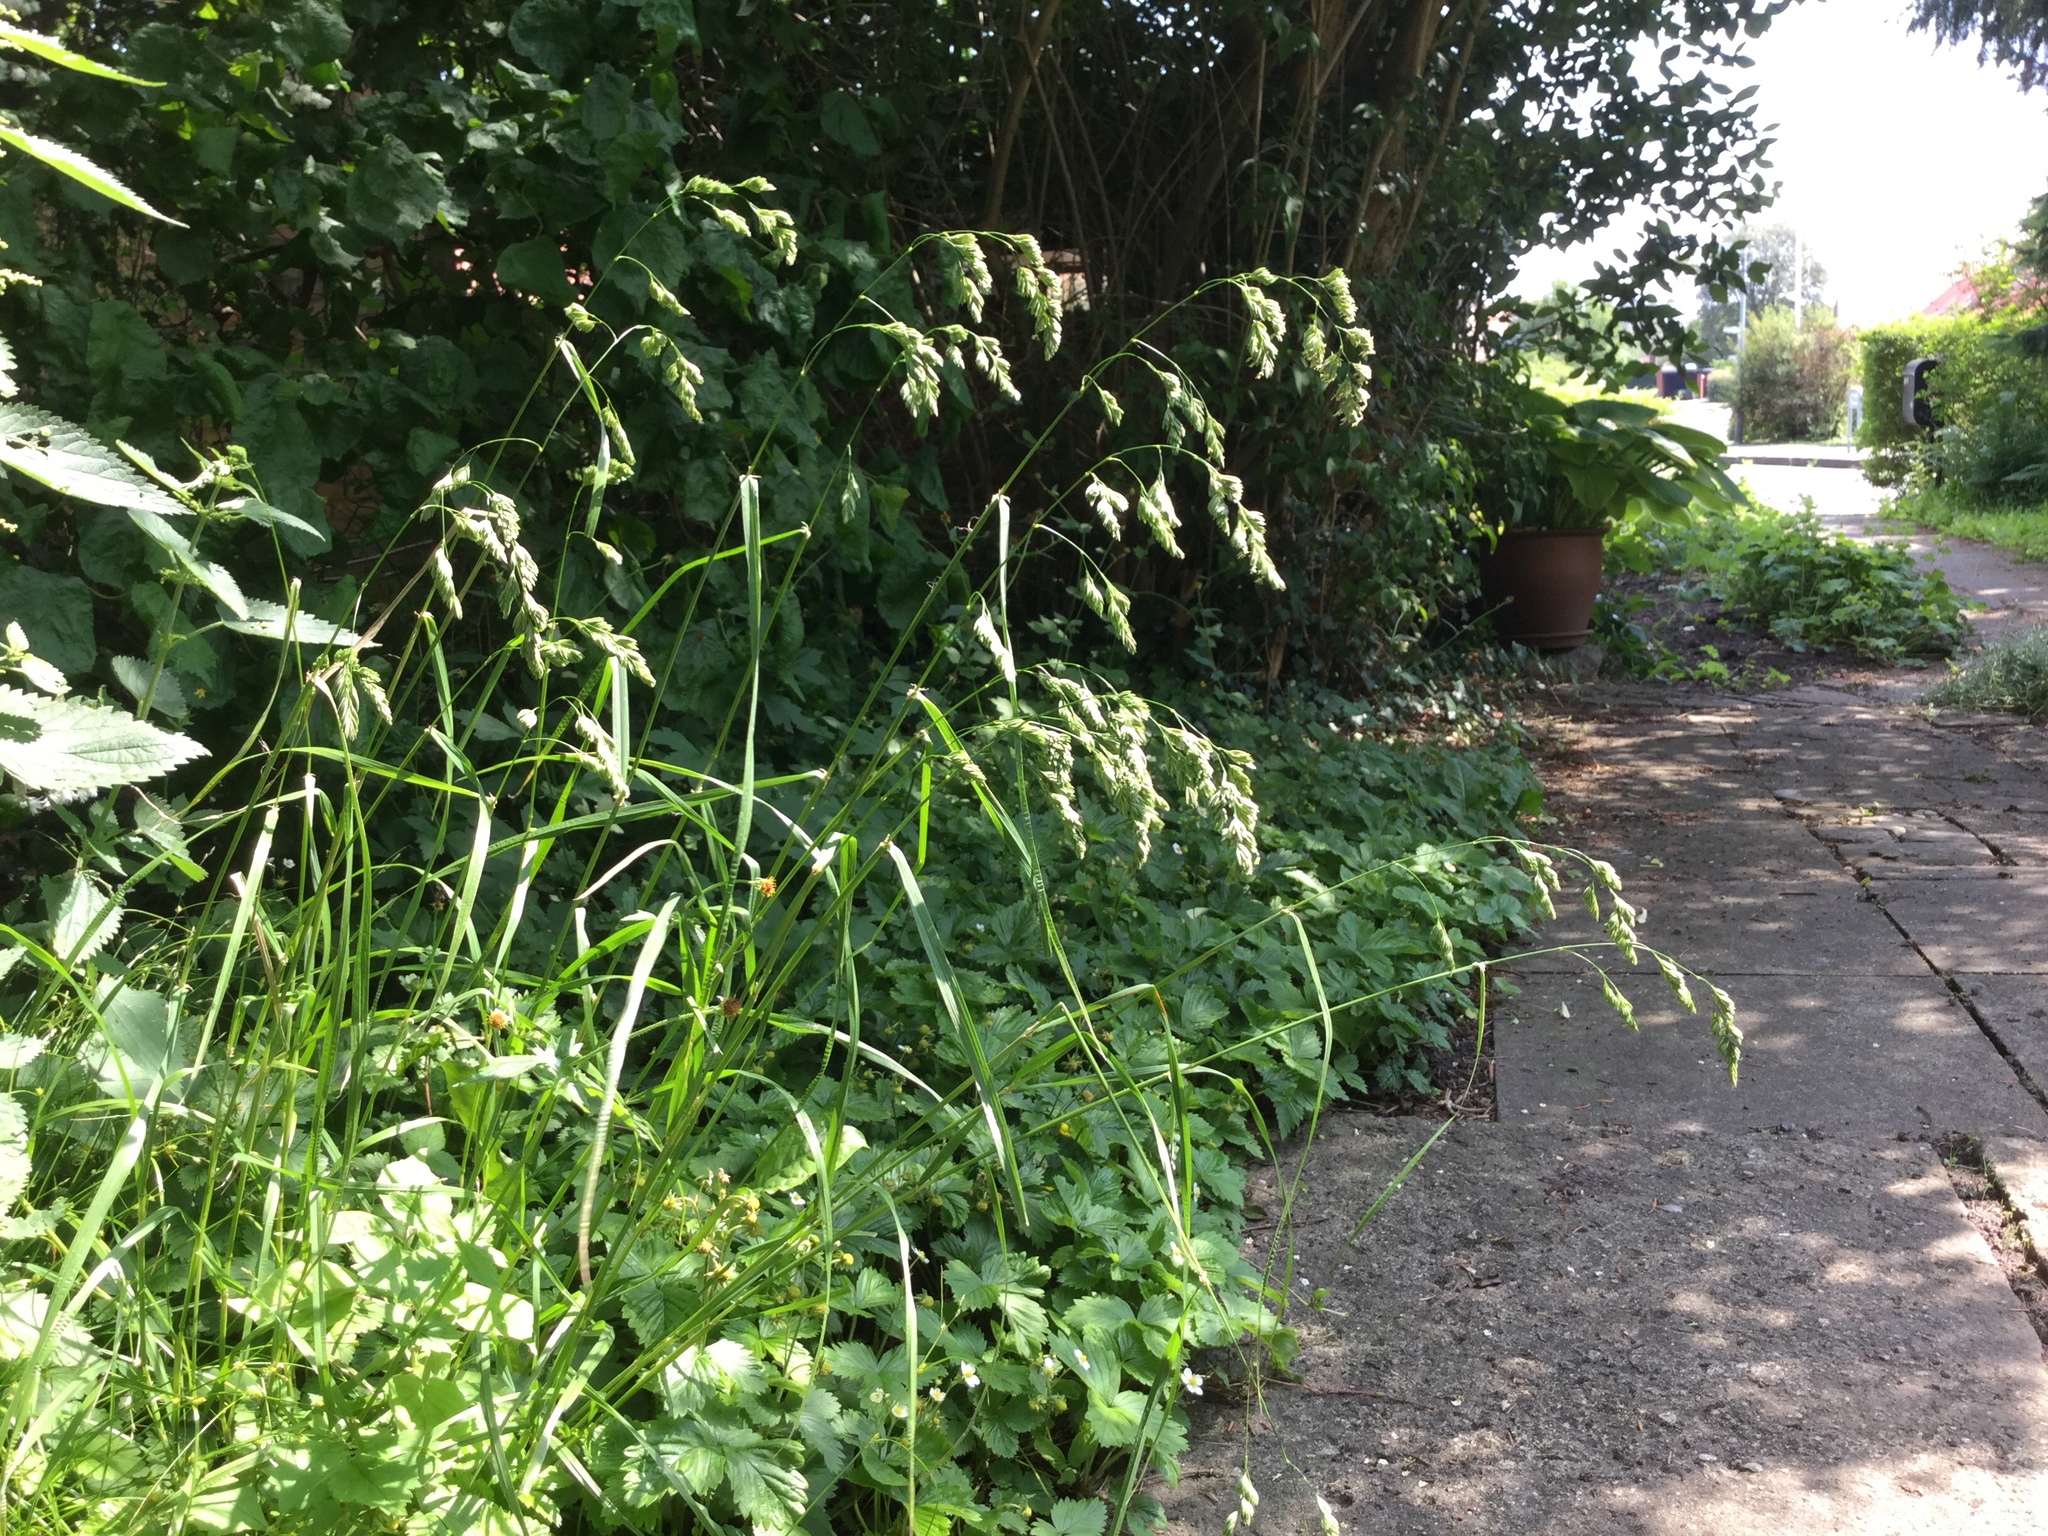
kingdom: Plantae
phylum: Tracheophyta
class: Liliopsida
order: Poales
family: Poaceae
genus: Dactylis
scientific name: Dactylis glomerata
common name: Orchardgrass
